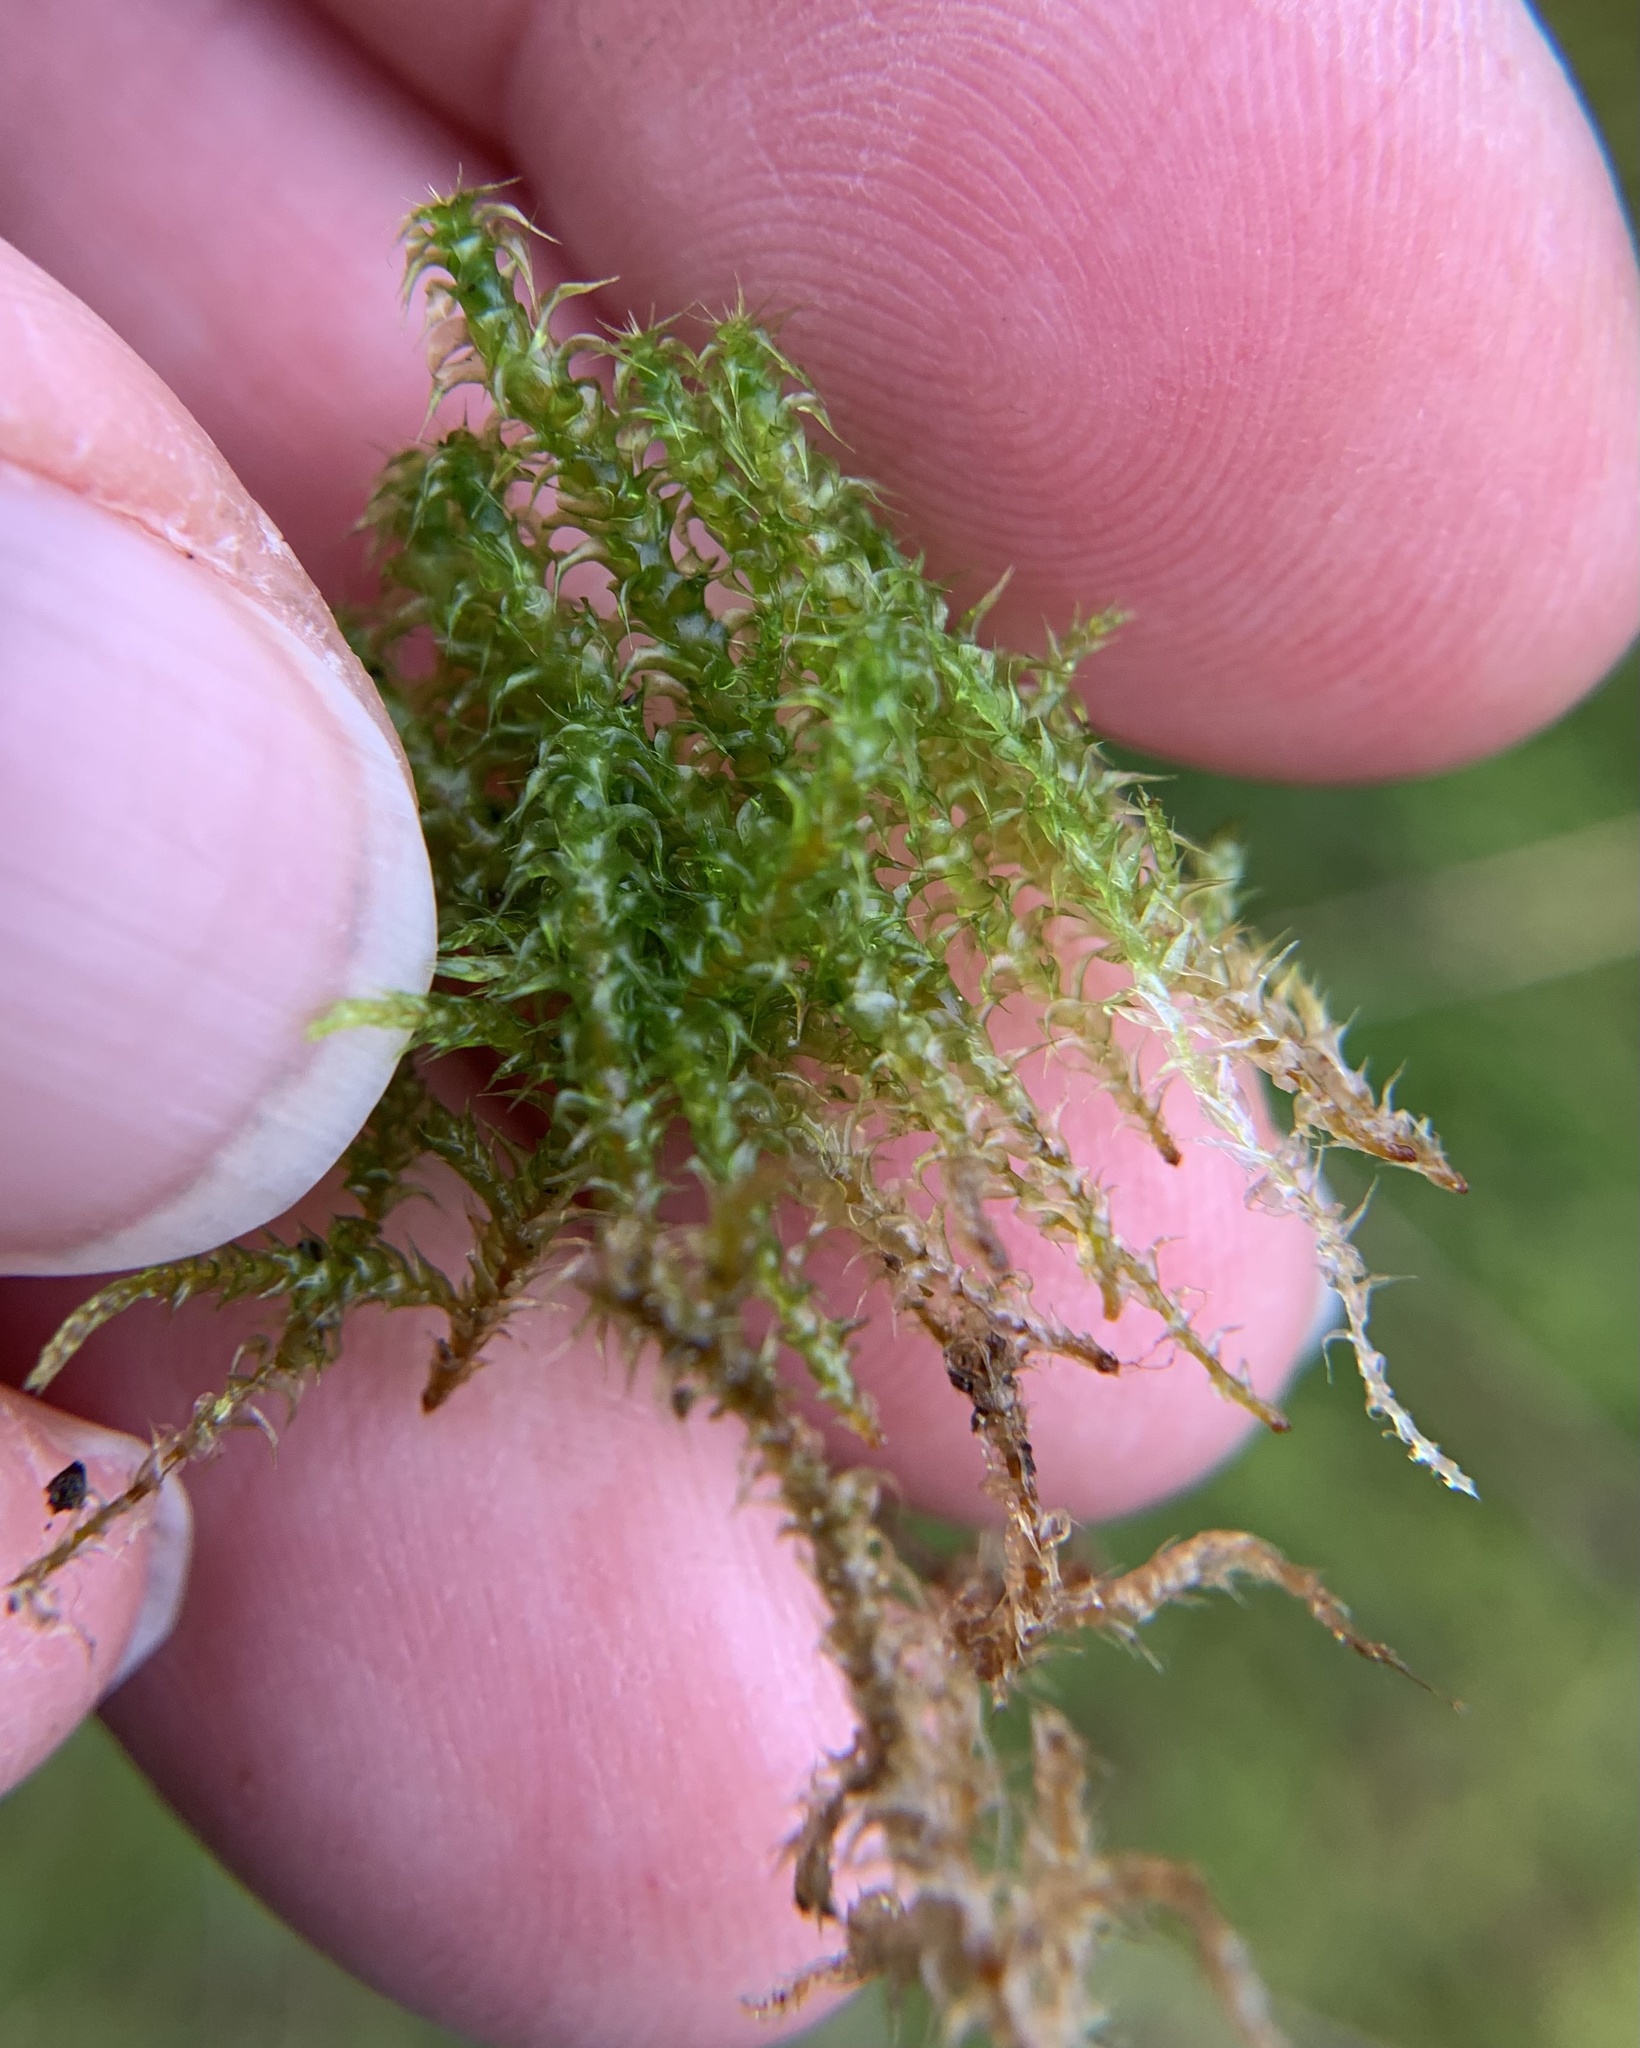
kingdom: Plantae
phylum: Bryophyta
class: Bryopsida
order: Hypnales
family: Hylocomiaceae
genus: Rhytidiadelphus
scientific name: Rhytidiadelphus squarrosus
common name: Springy turf-moss
